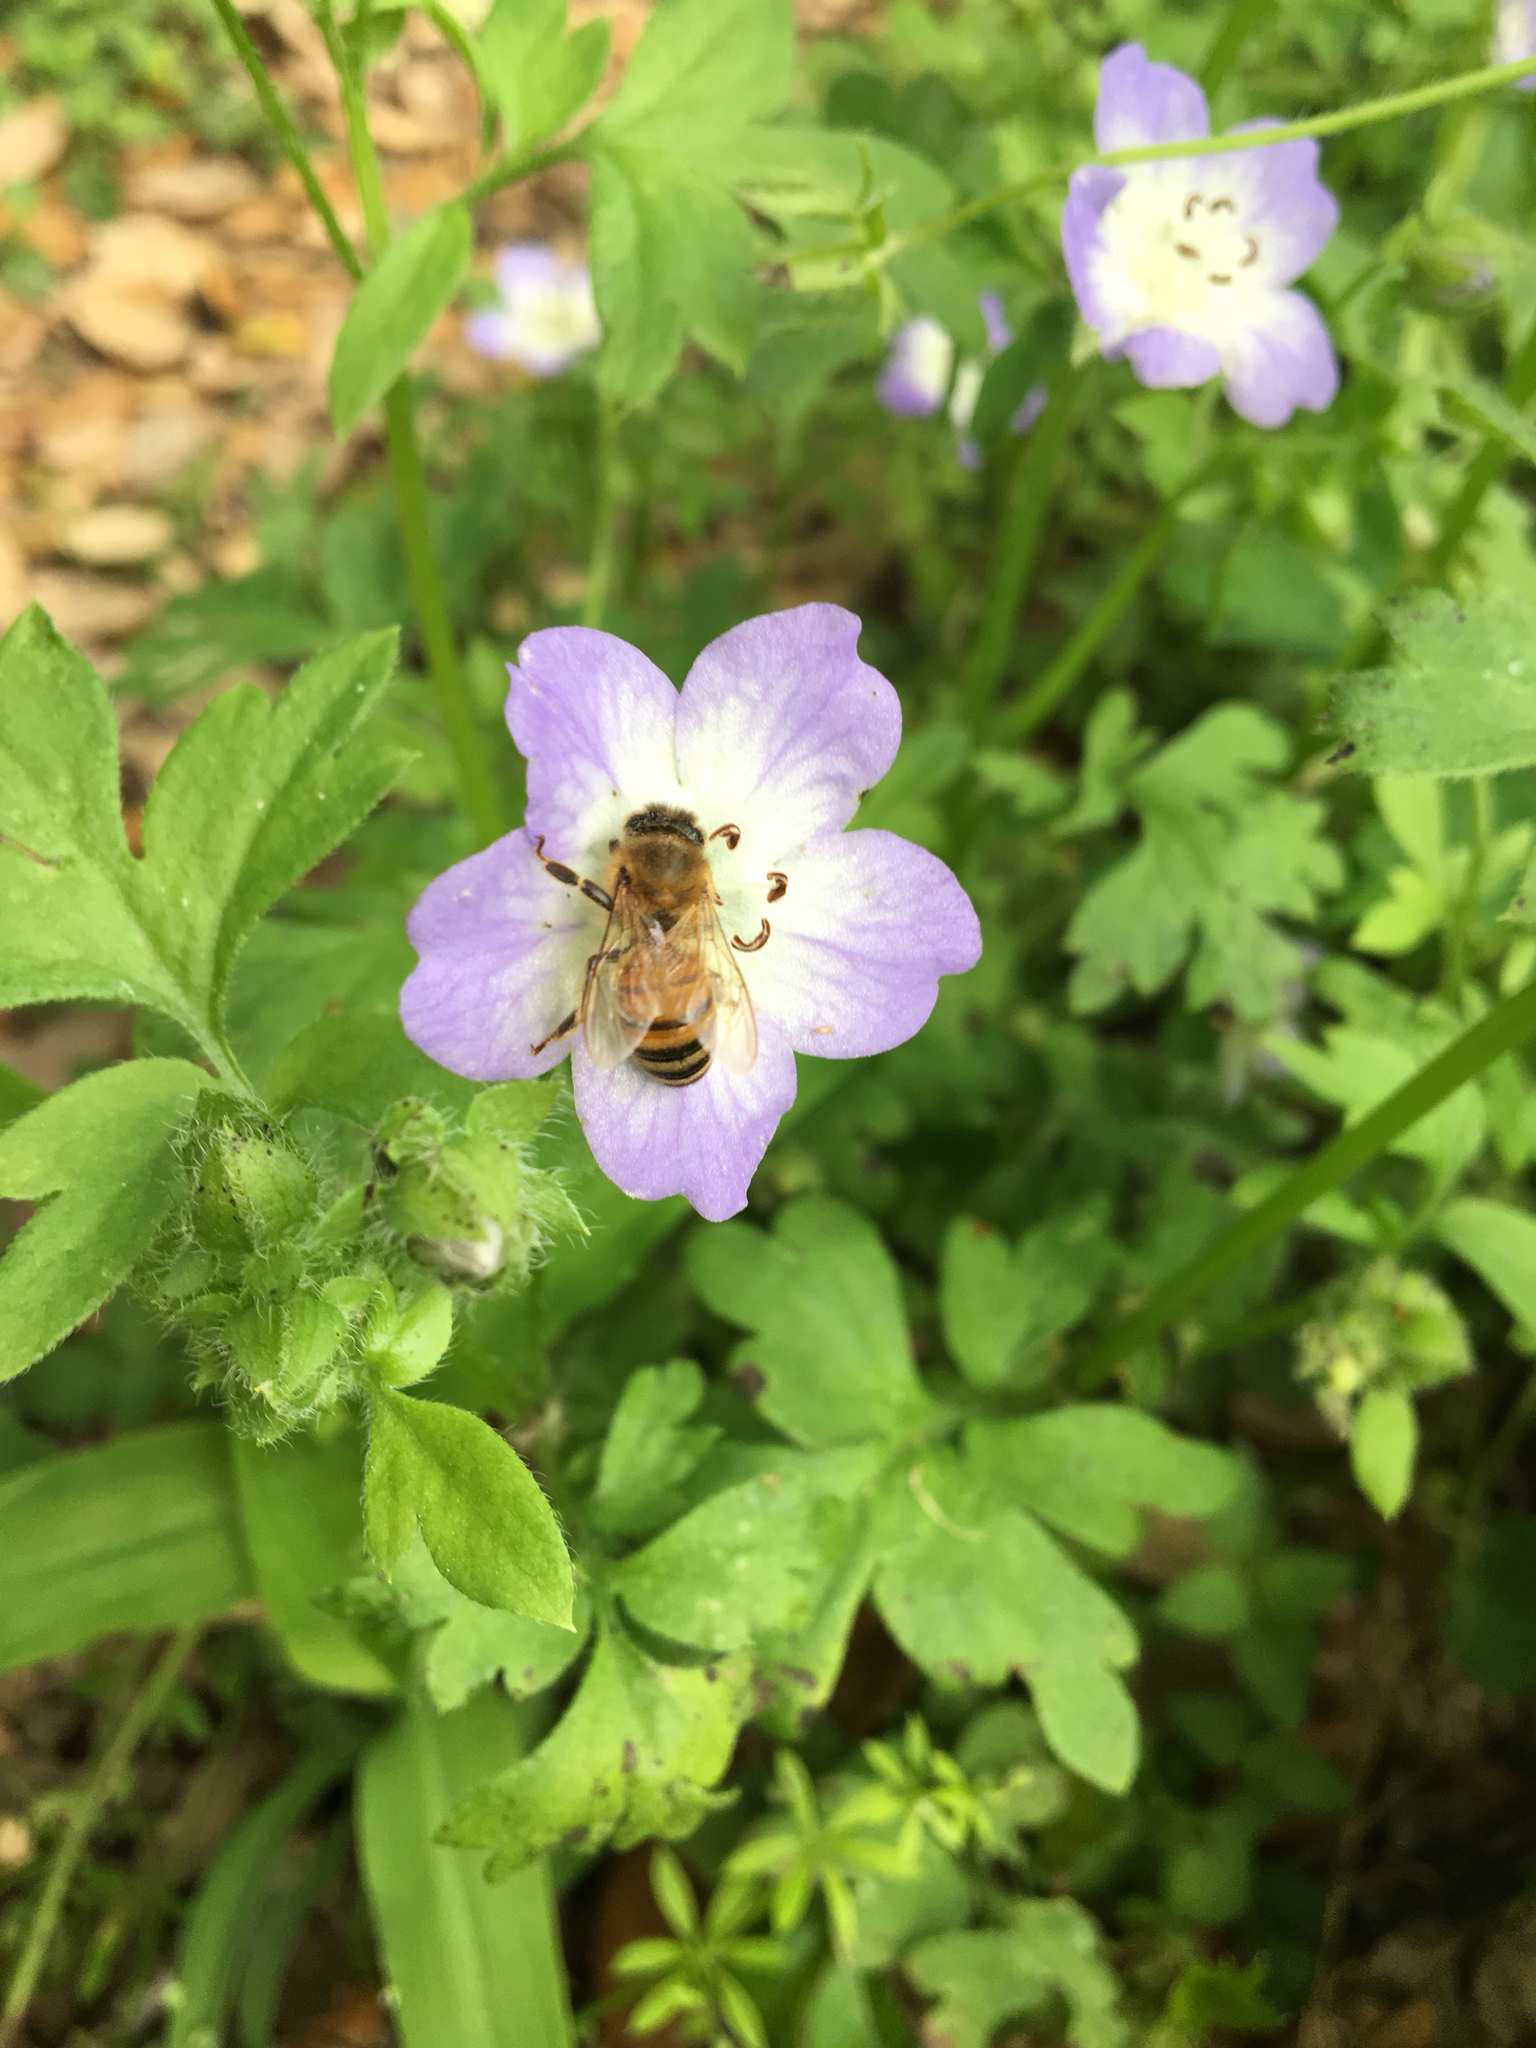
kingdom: Animalia
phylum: Arthropoda
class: Insecta
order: Hymenoptera
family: Apidae
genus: Apis
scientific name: Apis mellifera
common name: Honey bee
